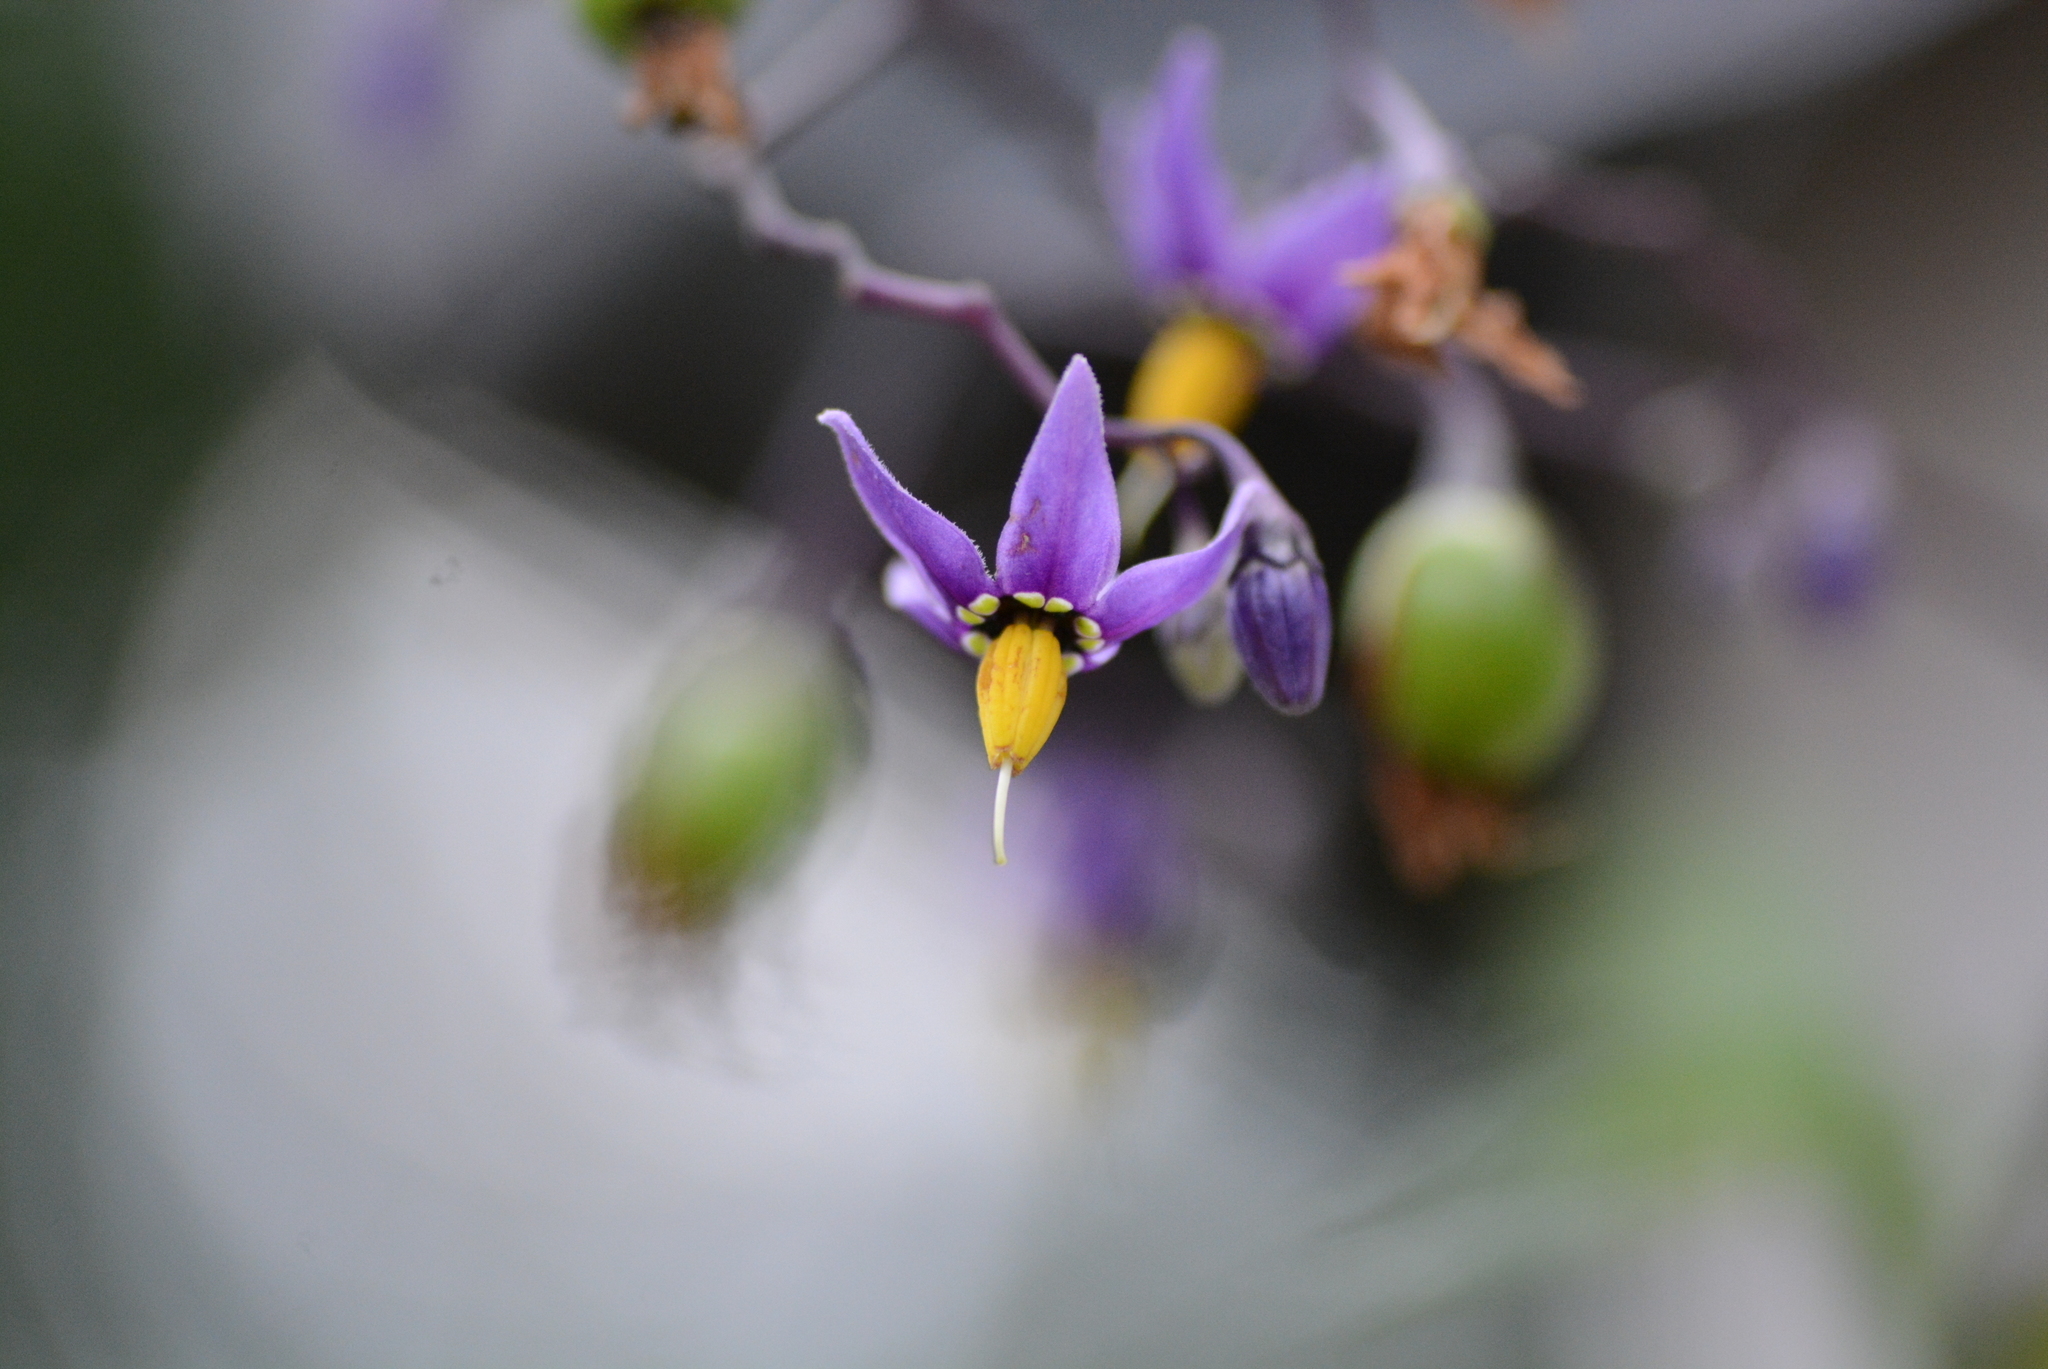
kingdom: Plantae
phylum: Tracheophyta
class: Magnoliopsida
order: Solanales
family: Solanaceae
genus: Solanum
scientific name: Solanum dulcamara
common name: Climbing nightshade
